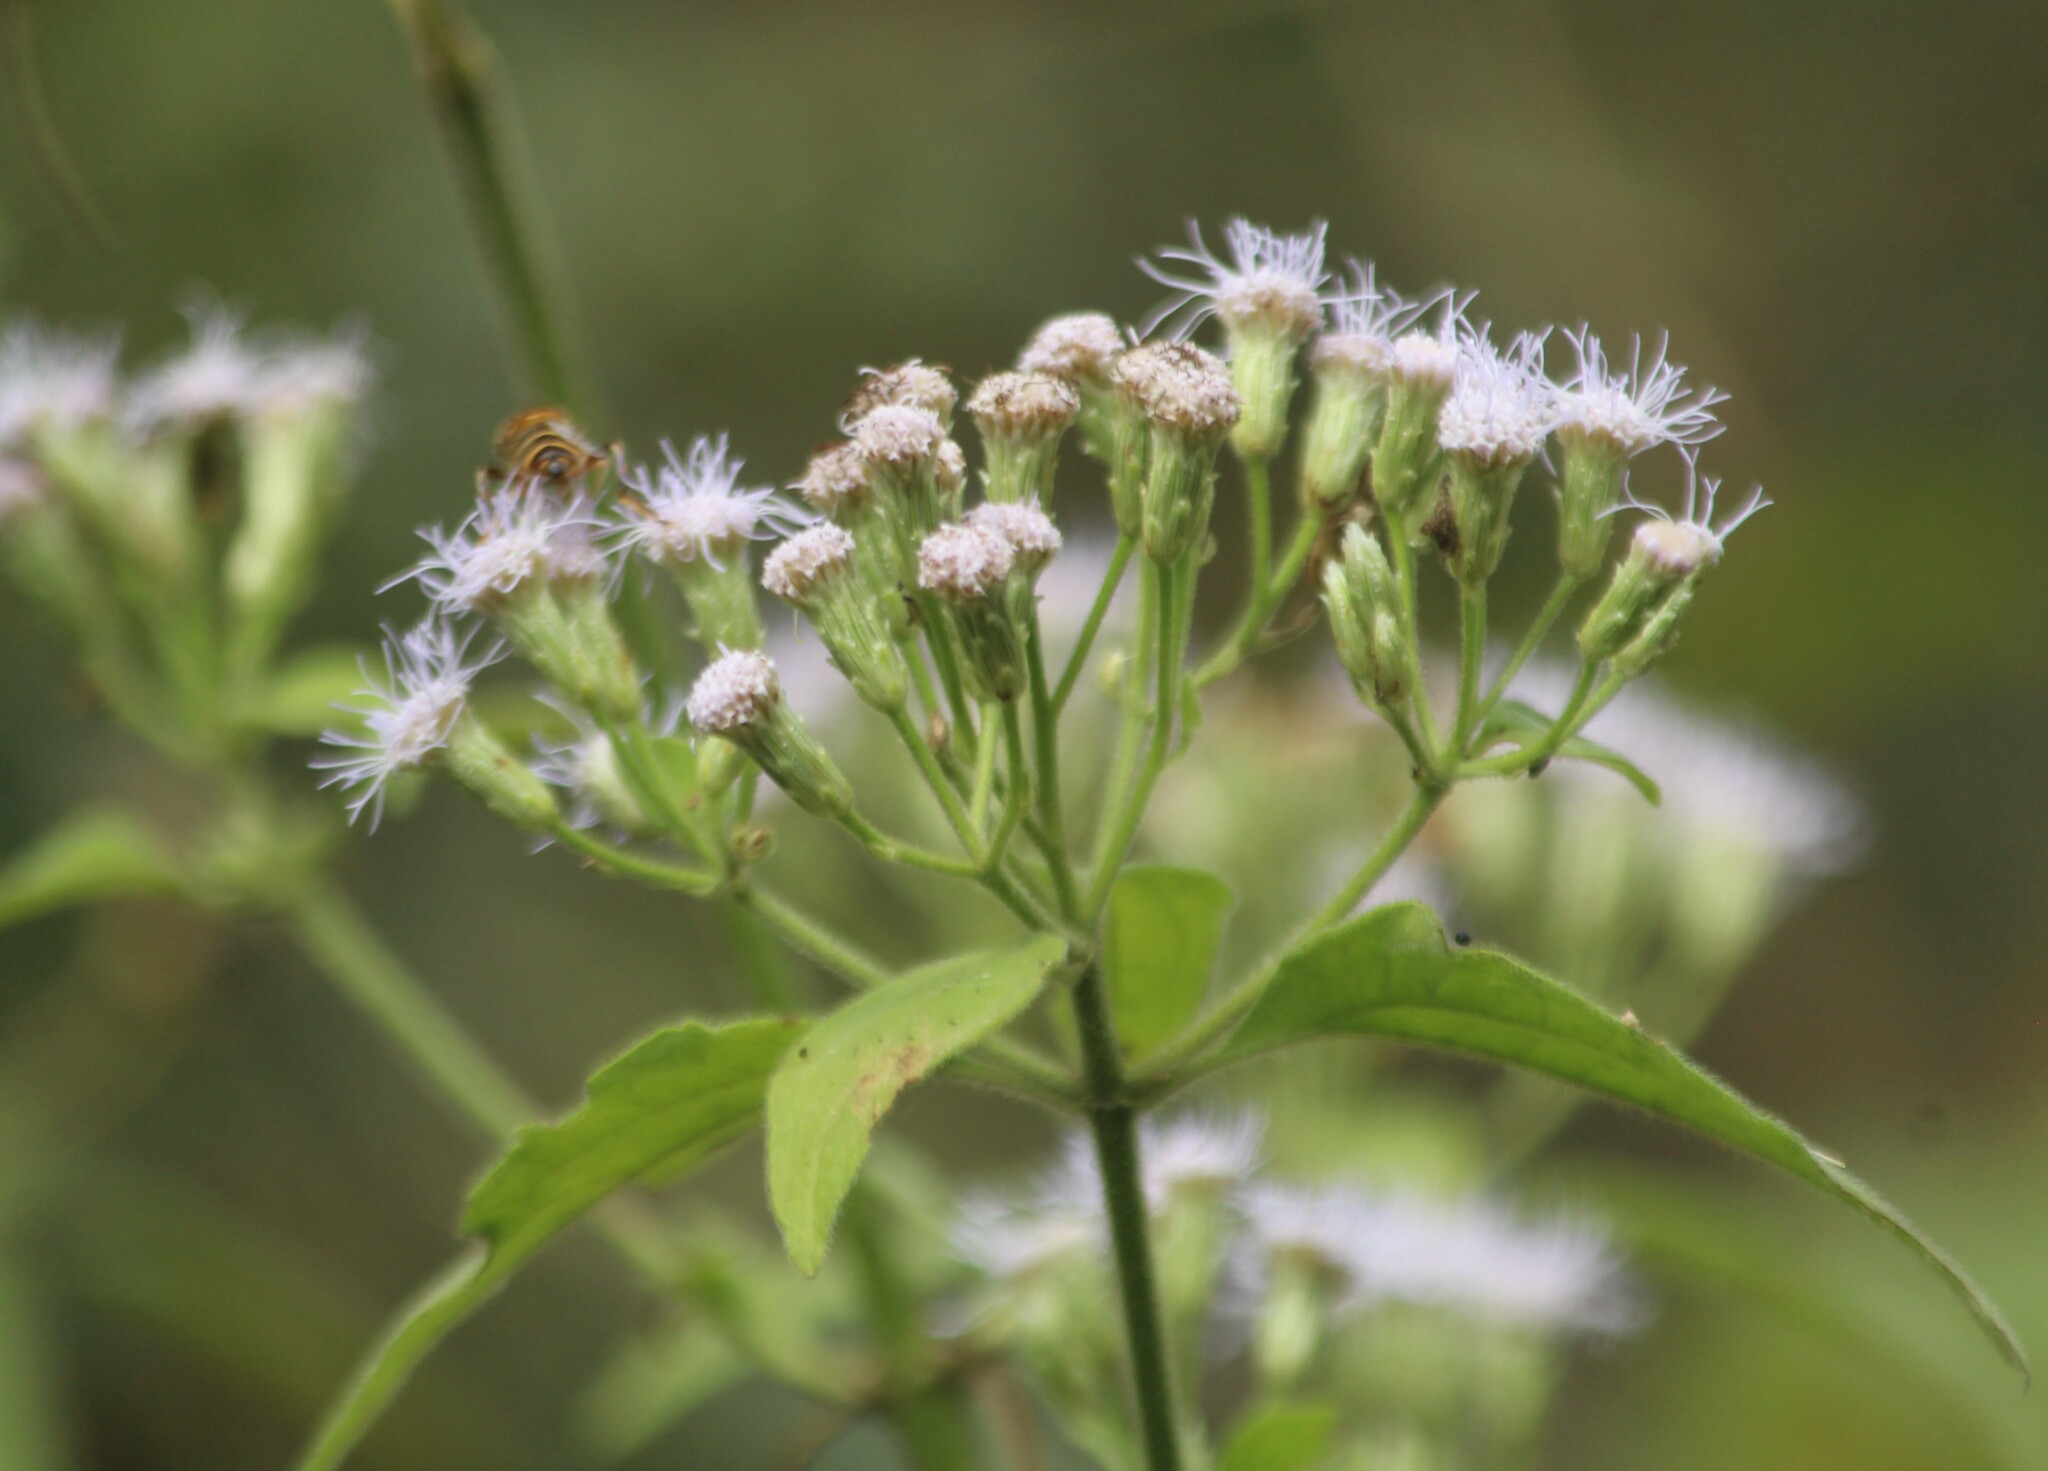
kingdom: Plantae
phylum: Tracheophyta
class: Magnoliopsida
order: Asterales
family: Asteraceae
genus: Chromolaena
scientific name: Chromolaena odorata
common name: Siamweed
